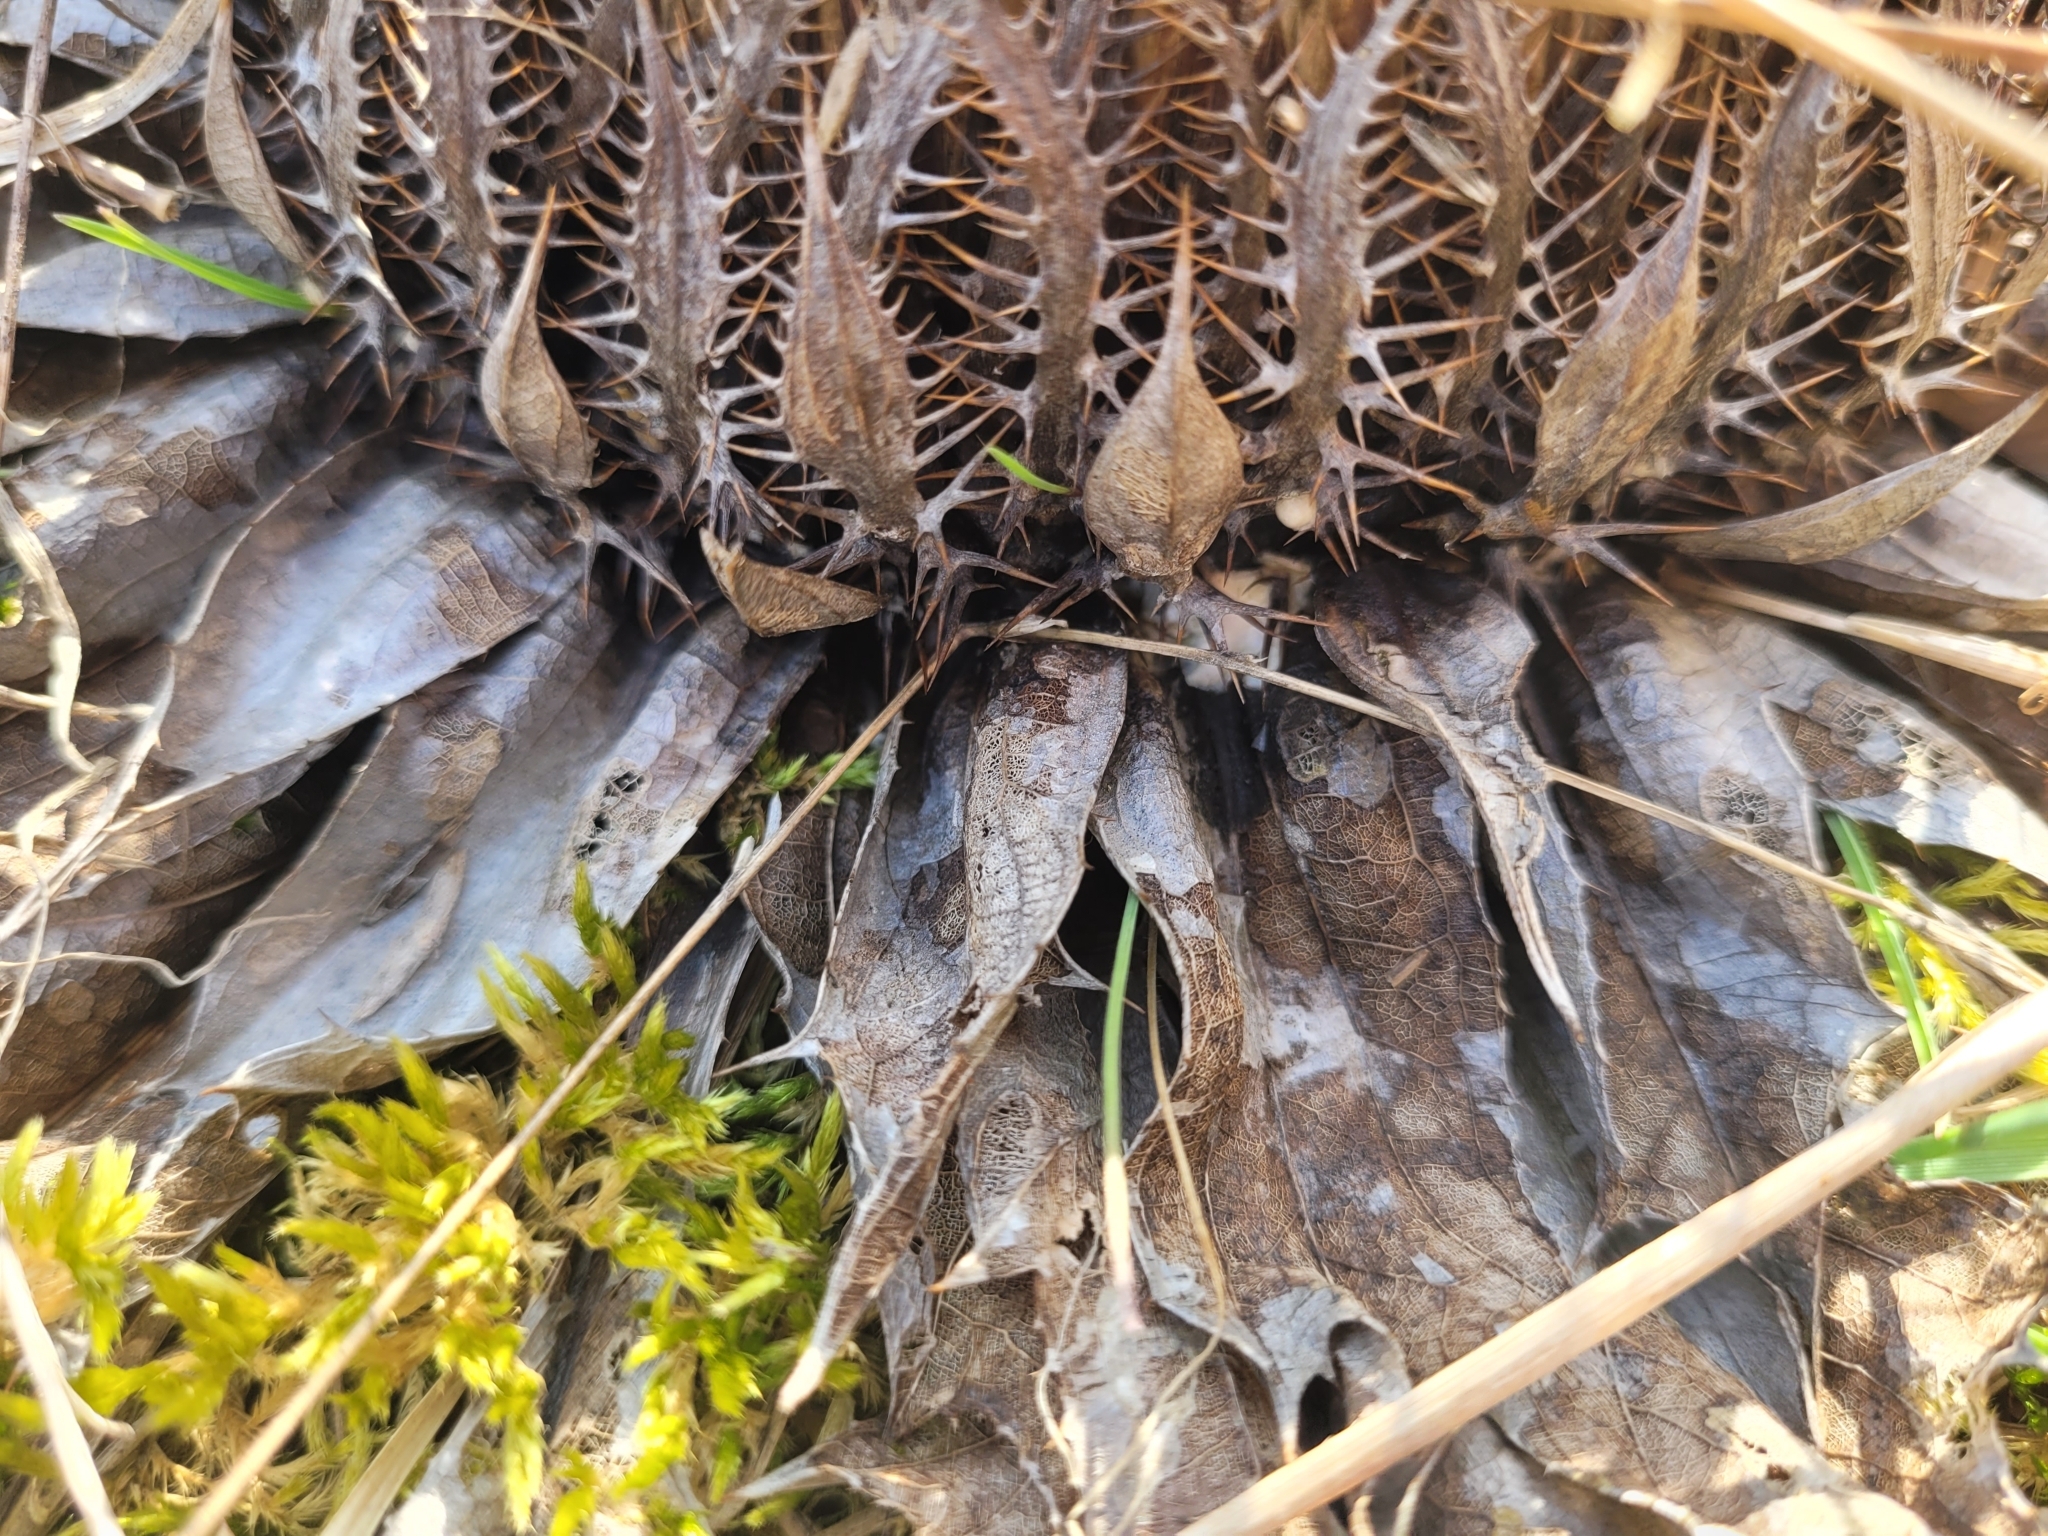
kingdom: Plantae
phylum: Tracheophyta
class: Magnoliopsida
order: Asterales
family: Asteraceae
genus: Carlina
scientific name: Carlina acanthifolia
